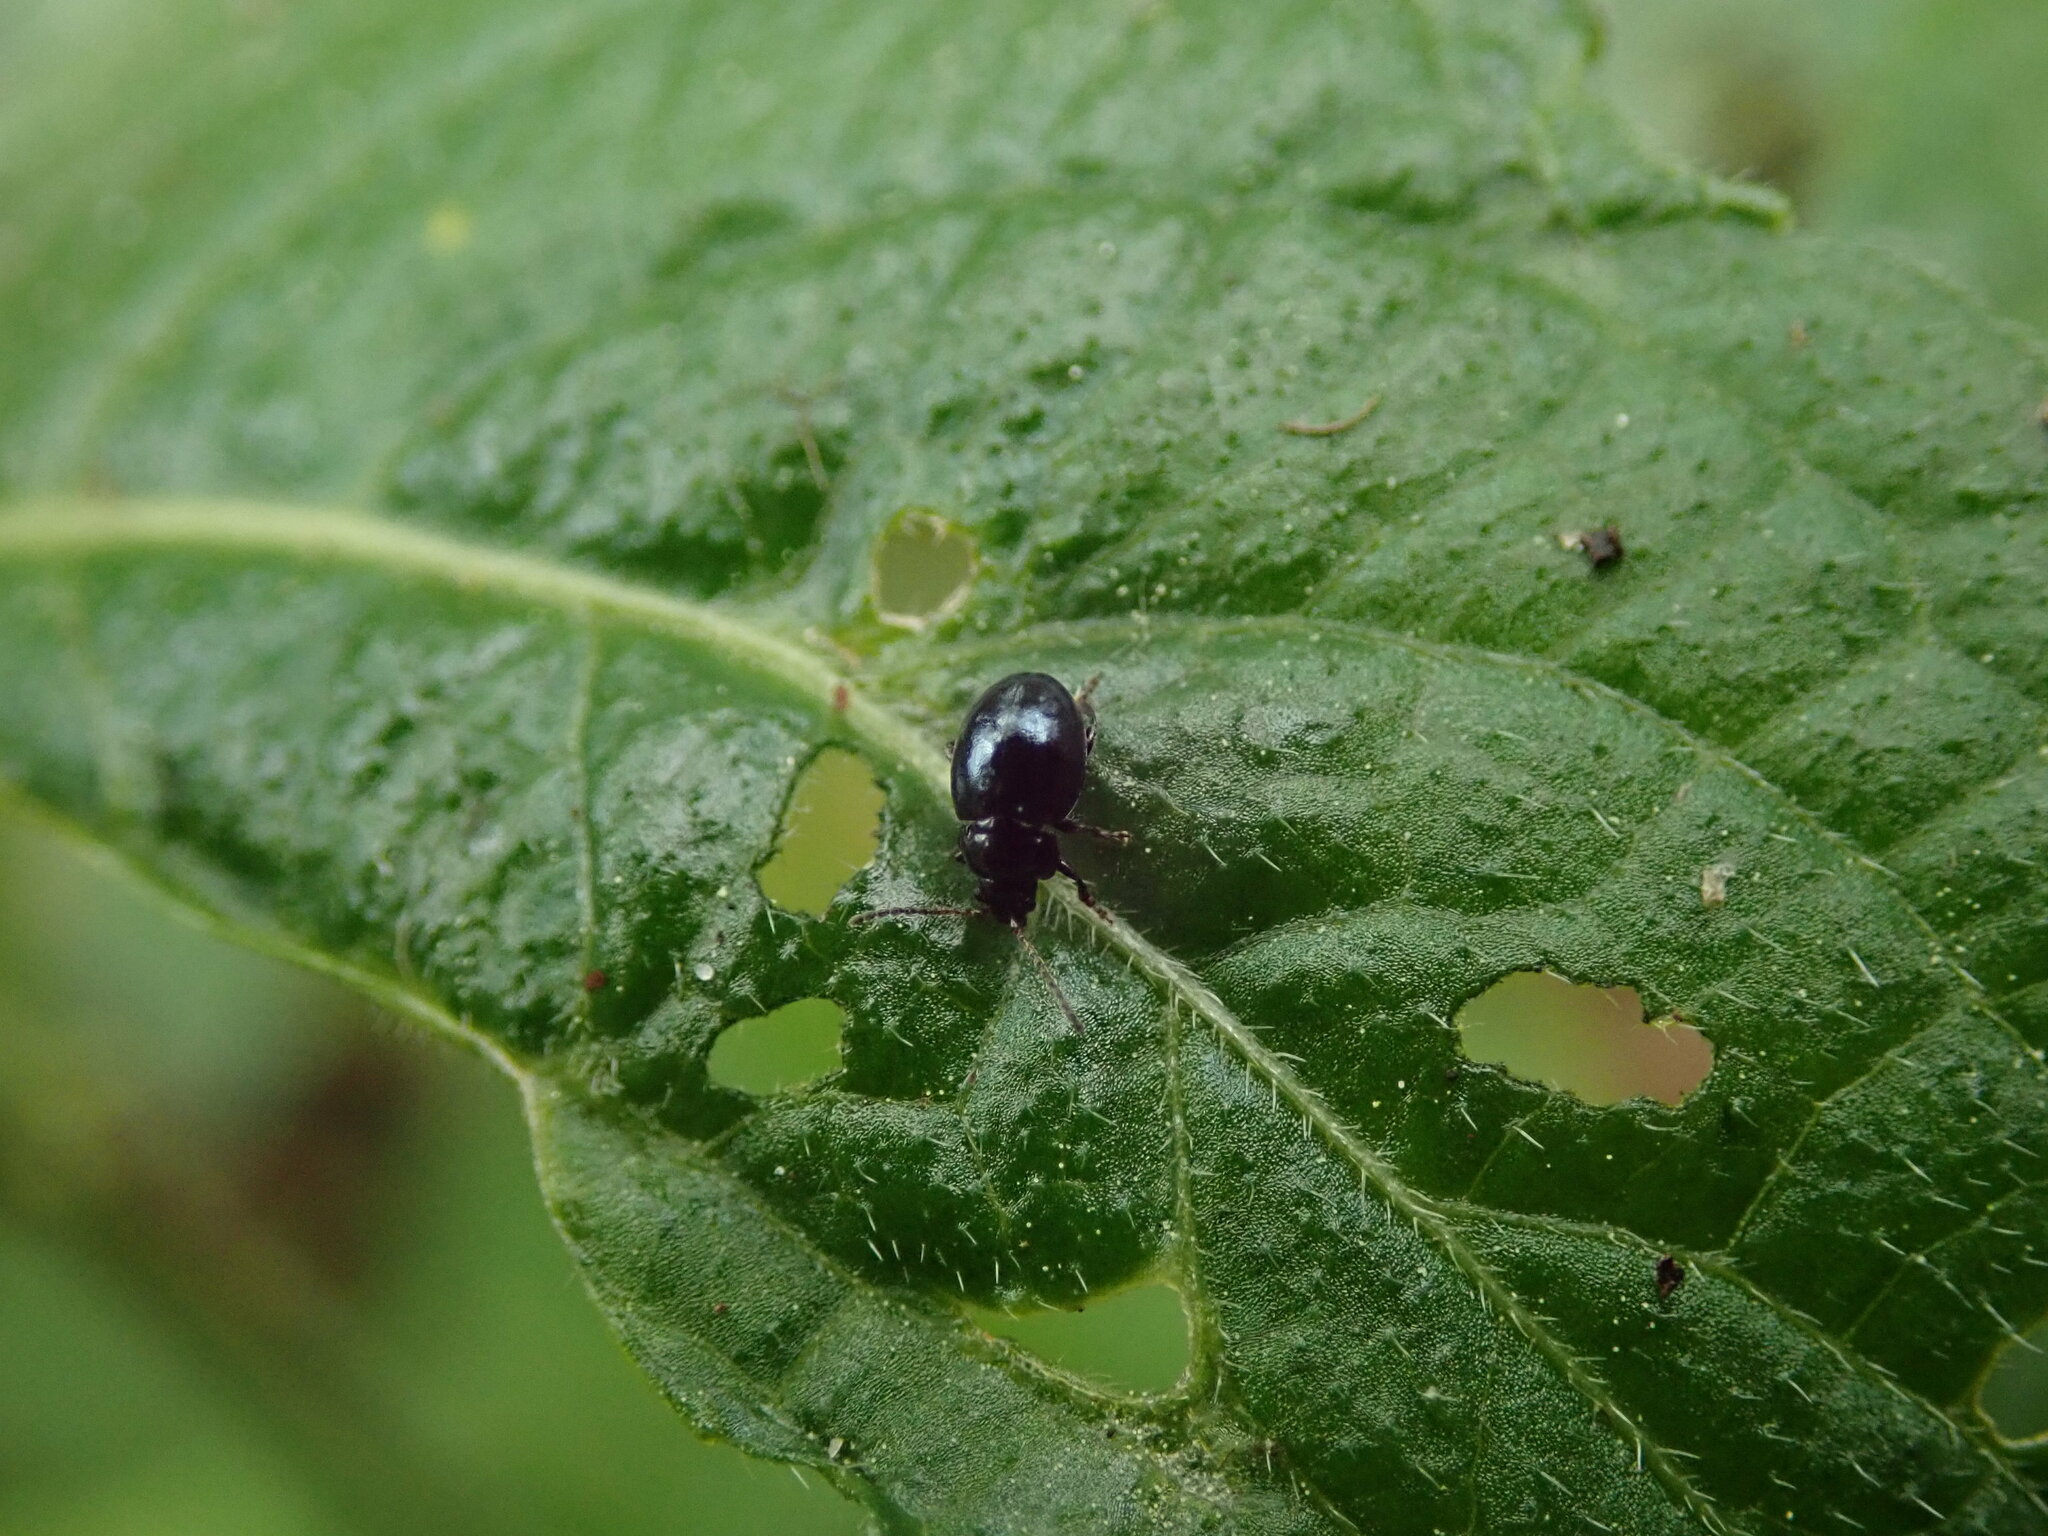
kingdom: Animalia
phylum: Arthropoda
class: Insecta
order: Coleoptera
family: Chrysomelidae
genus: Hermaeophaga
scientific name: Hermaeophaga mercurialis
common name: Dogs-mercury flea beetle
